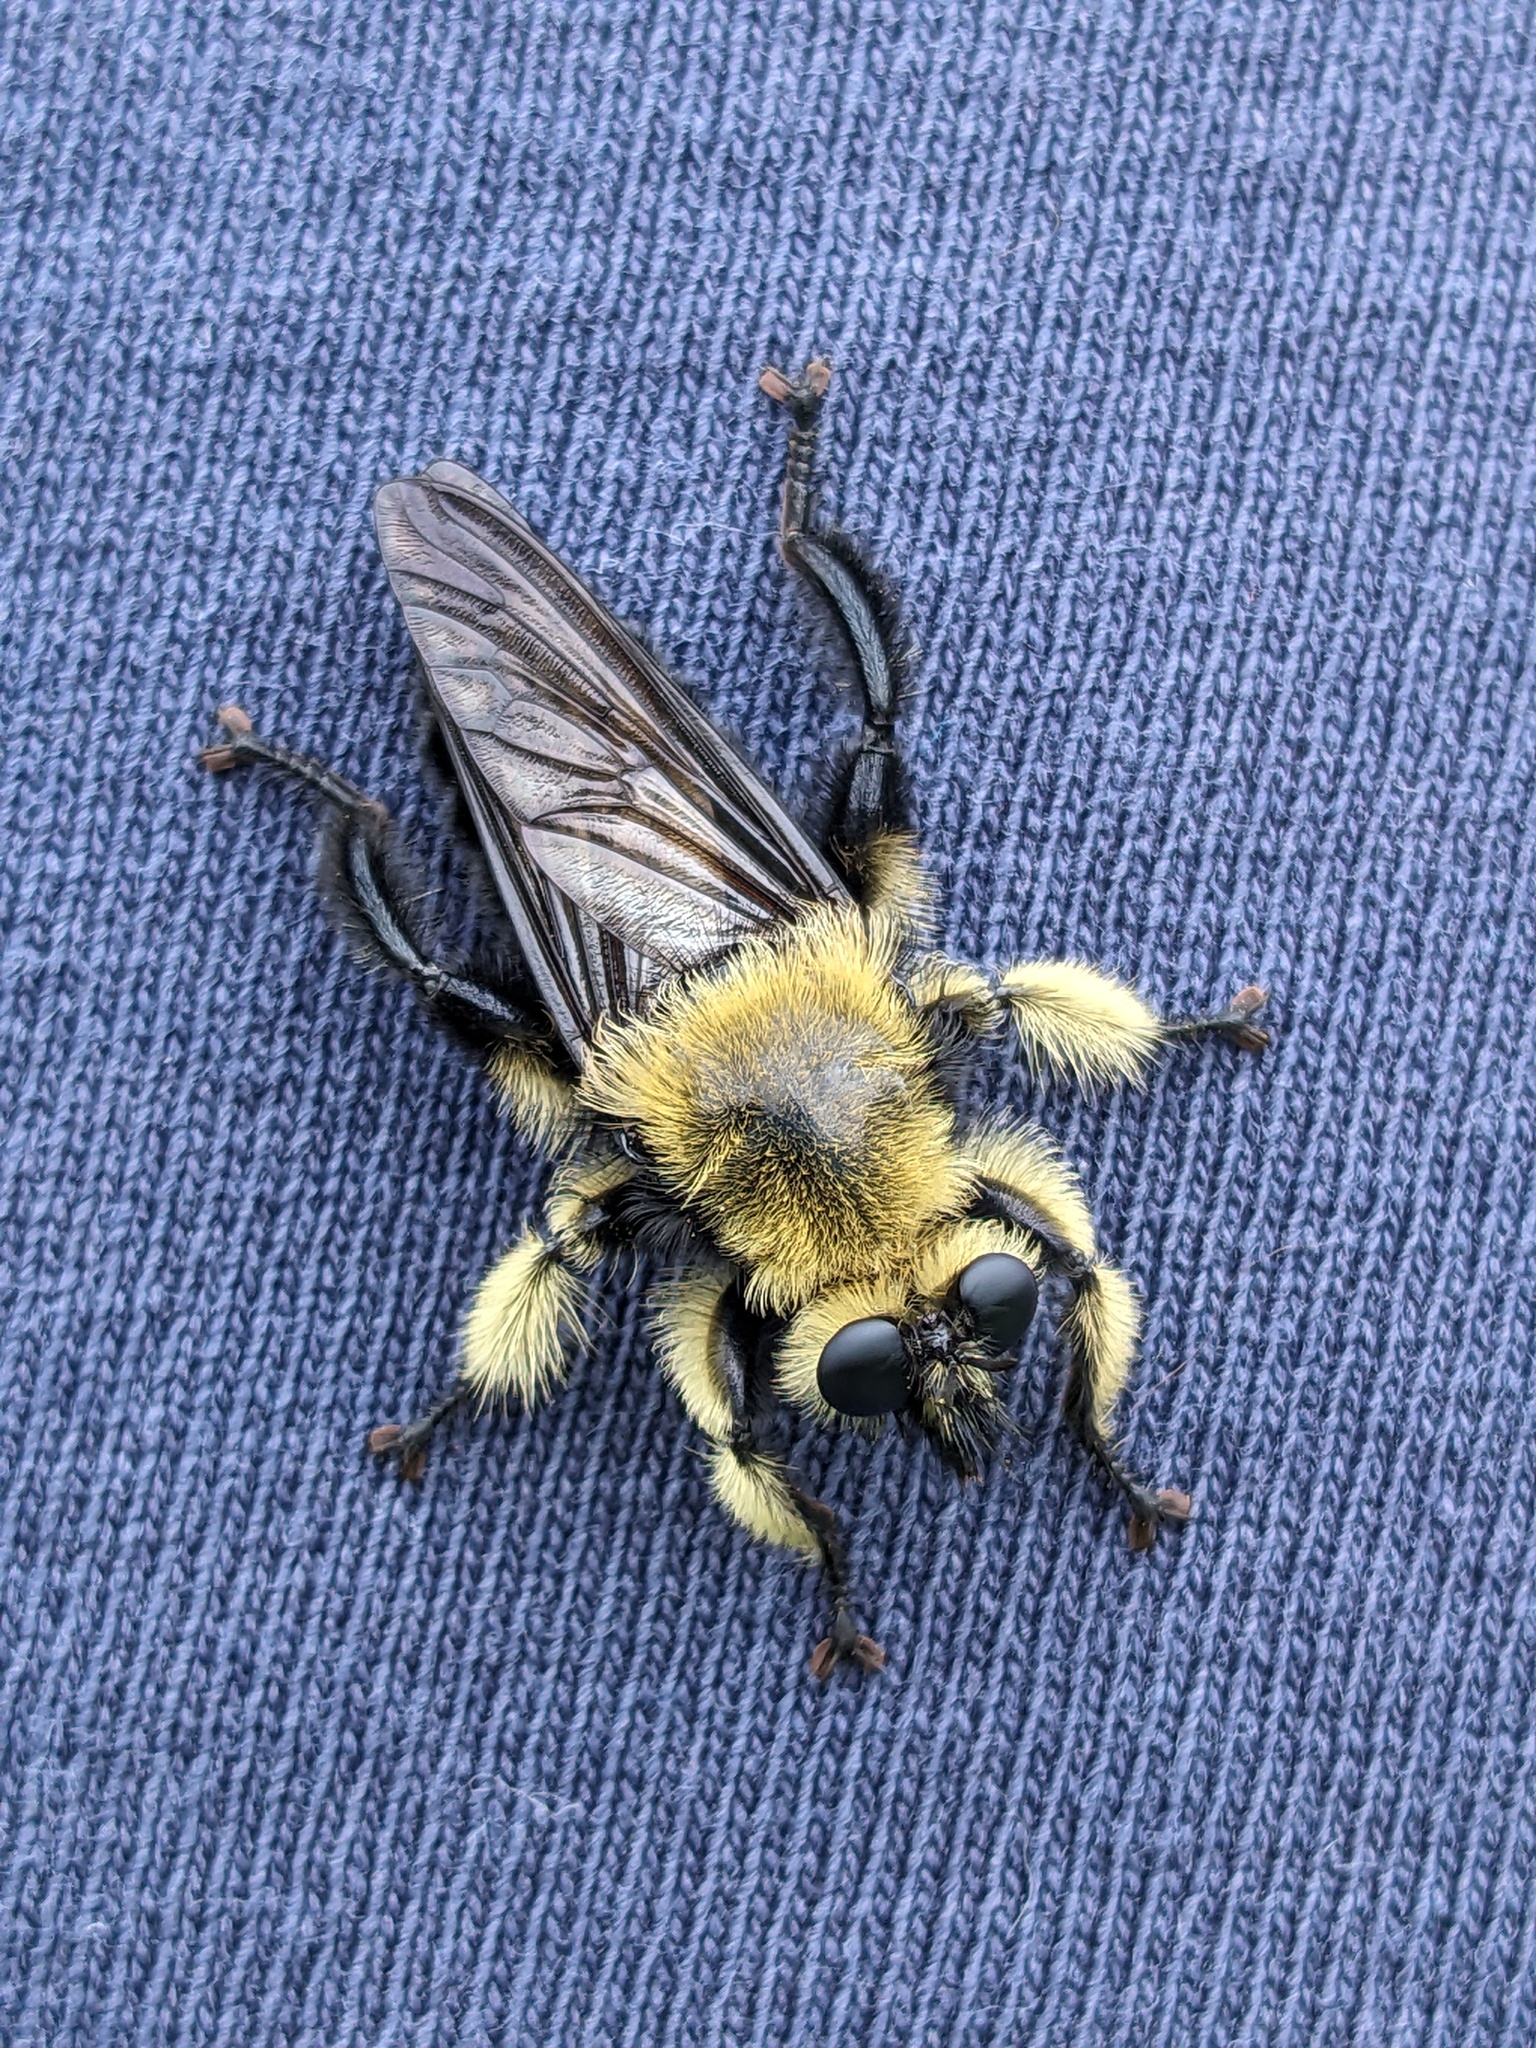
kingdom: Animalia
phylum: Arthropoda
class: Insecta
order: Diptera
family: Asilidae
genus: Laphria
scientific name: Laphria affinis
